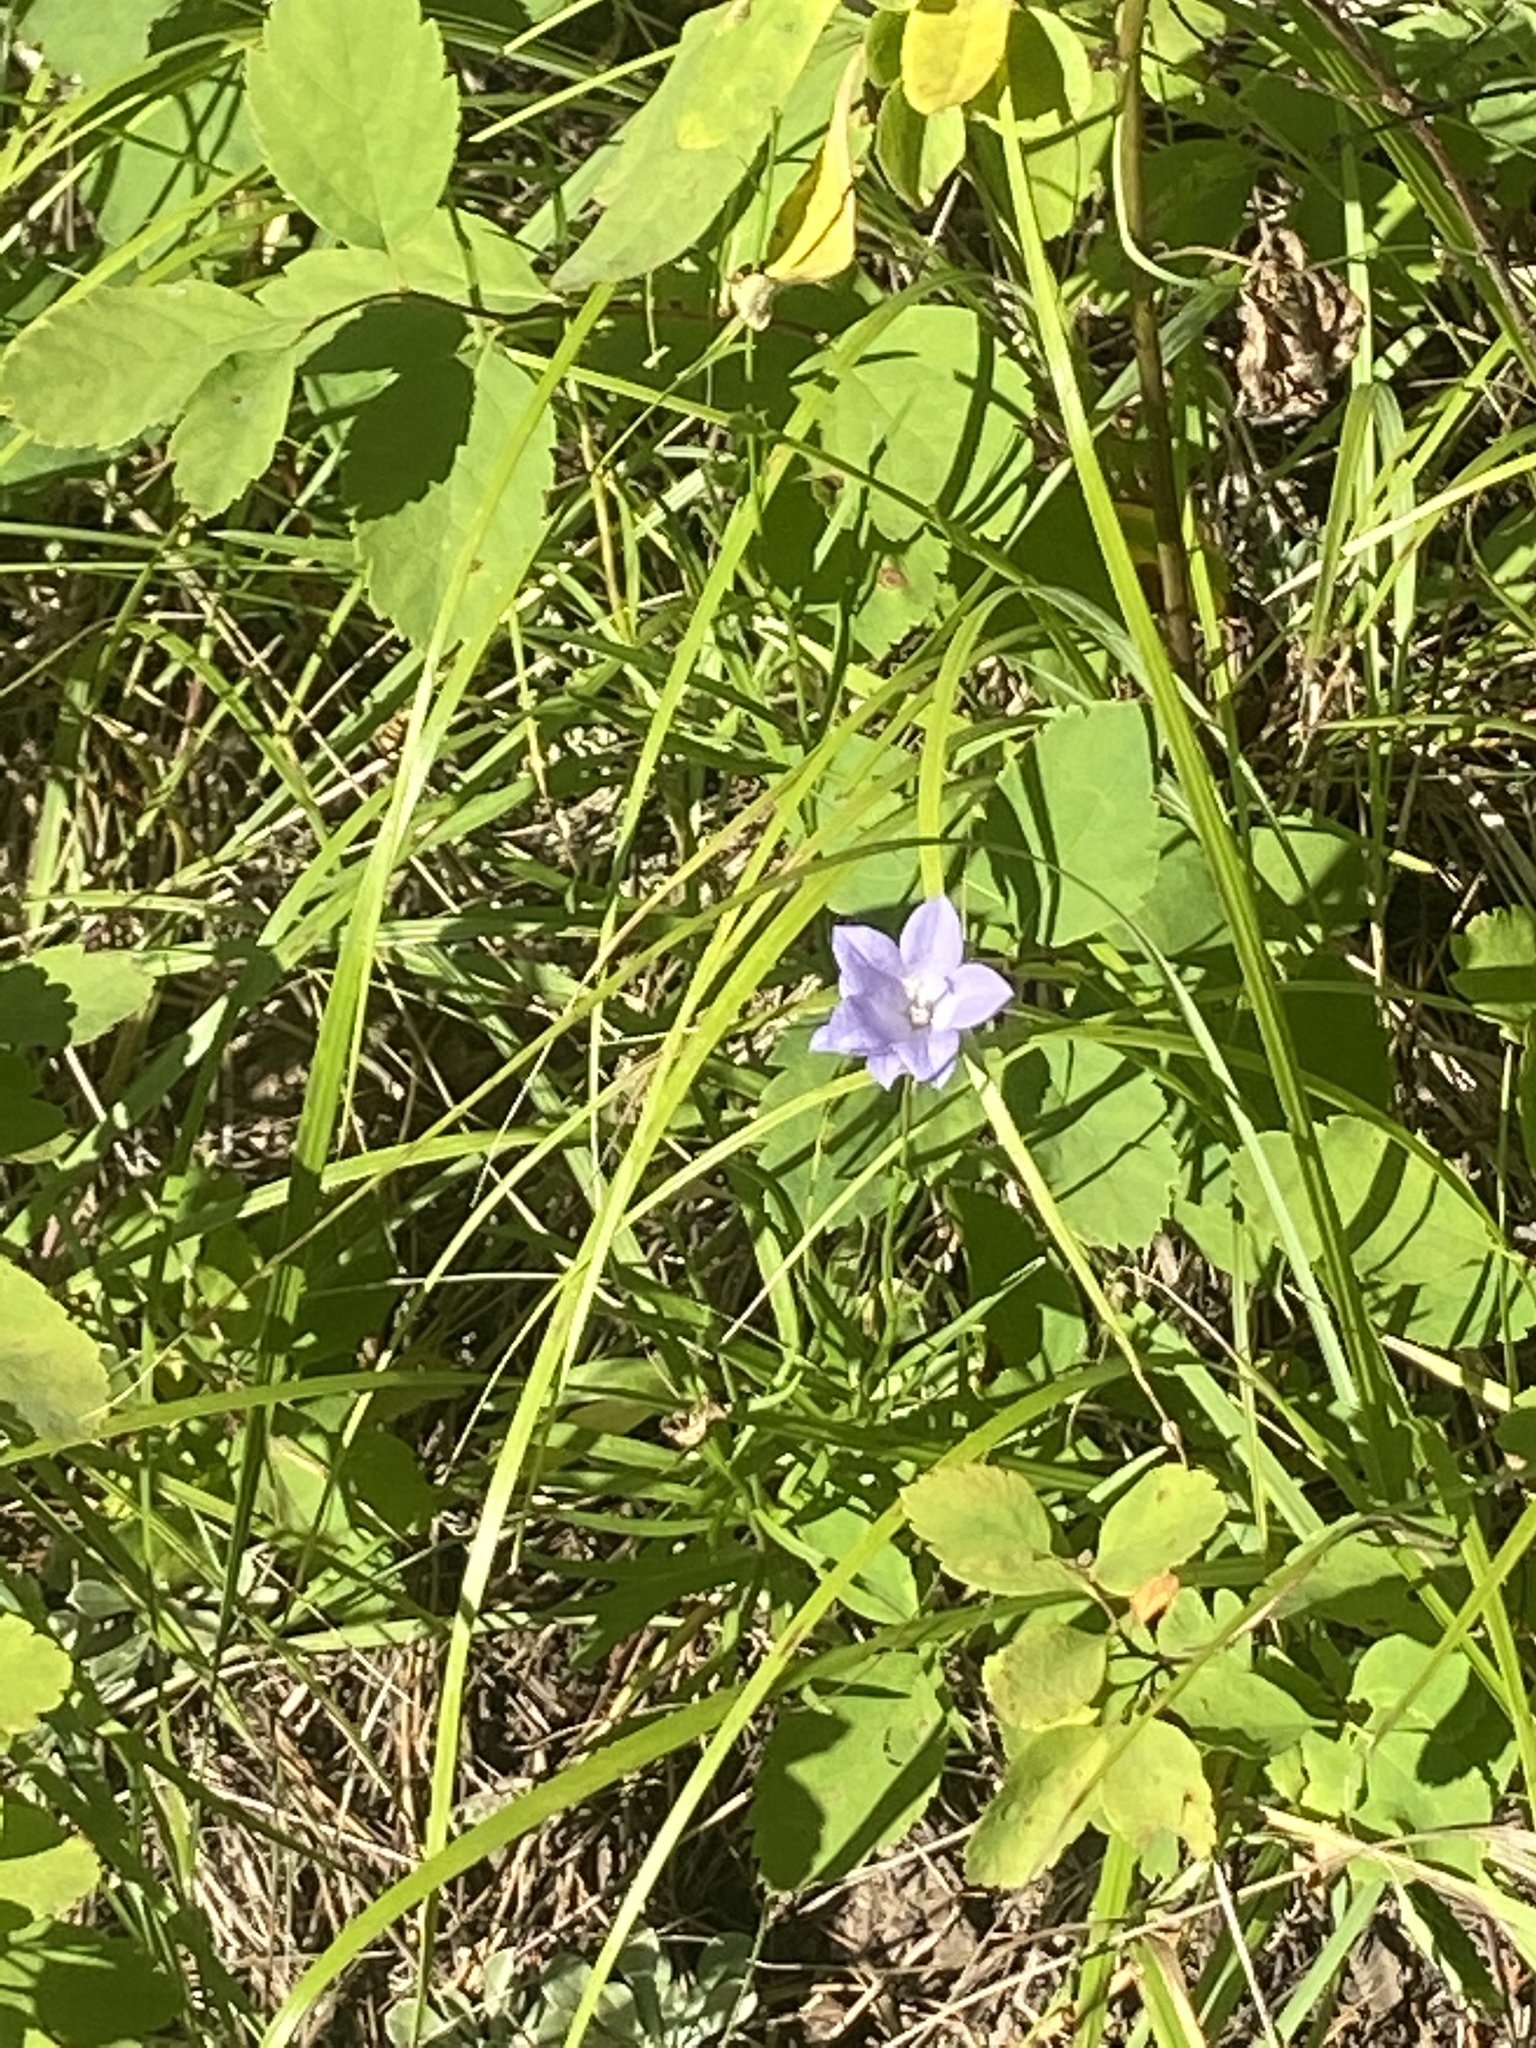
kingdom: Plantae
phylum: Tracheophyta
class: Magnoliopsida
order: Asterales
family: Campanulaceae
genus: Campanula
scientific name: Campanula
